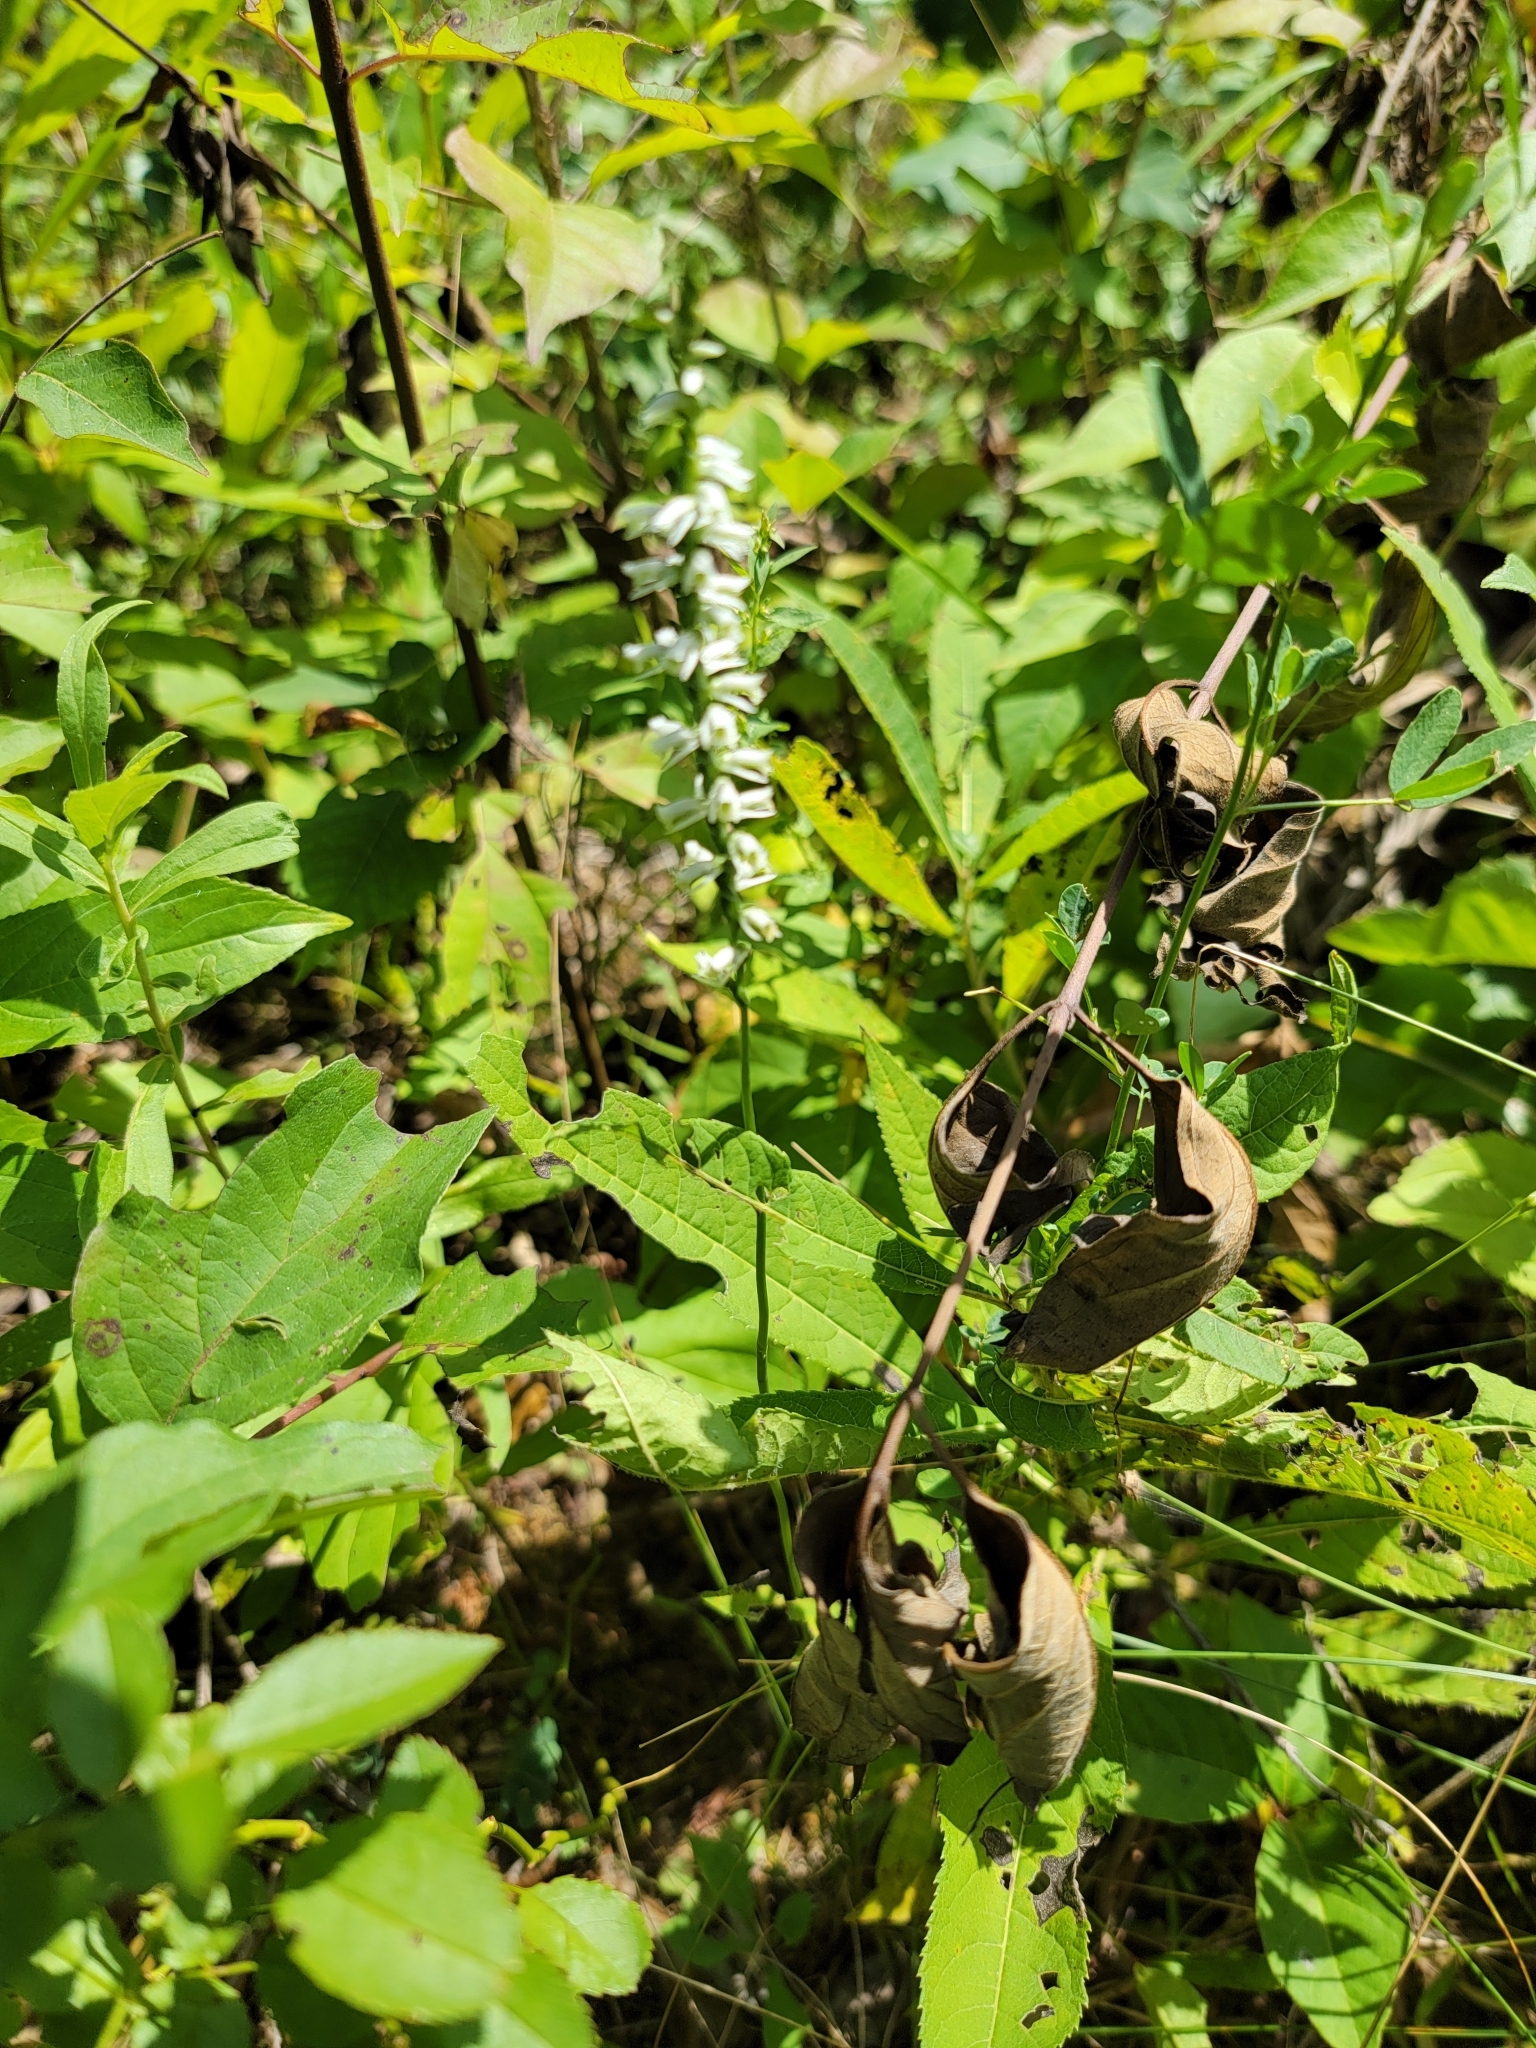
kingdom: Plantae
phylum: Tracheophyta
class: Liliopsida
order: Asparagales
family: Orchidaceae
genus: Spiranthes
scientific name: Spiranthes lacera
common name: Northern slender ladies'-tresses
